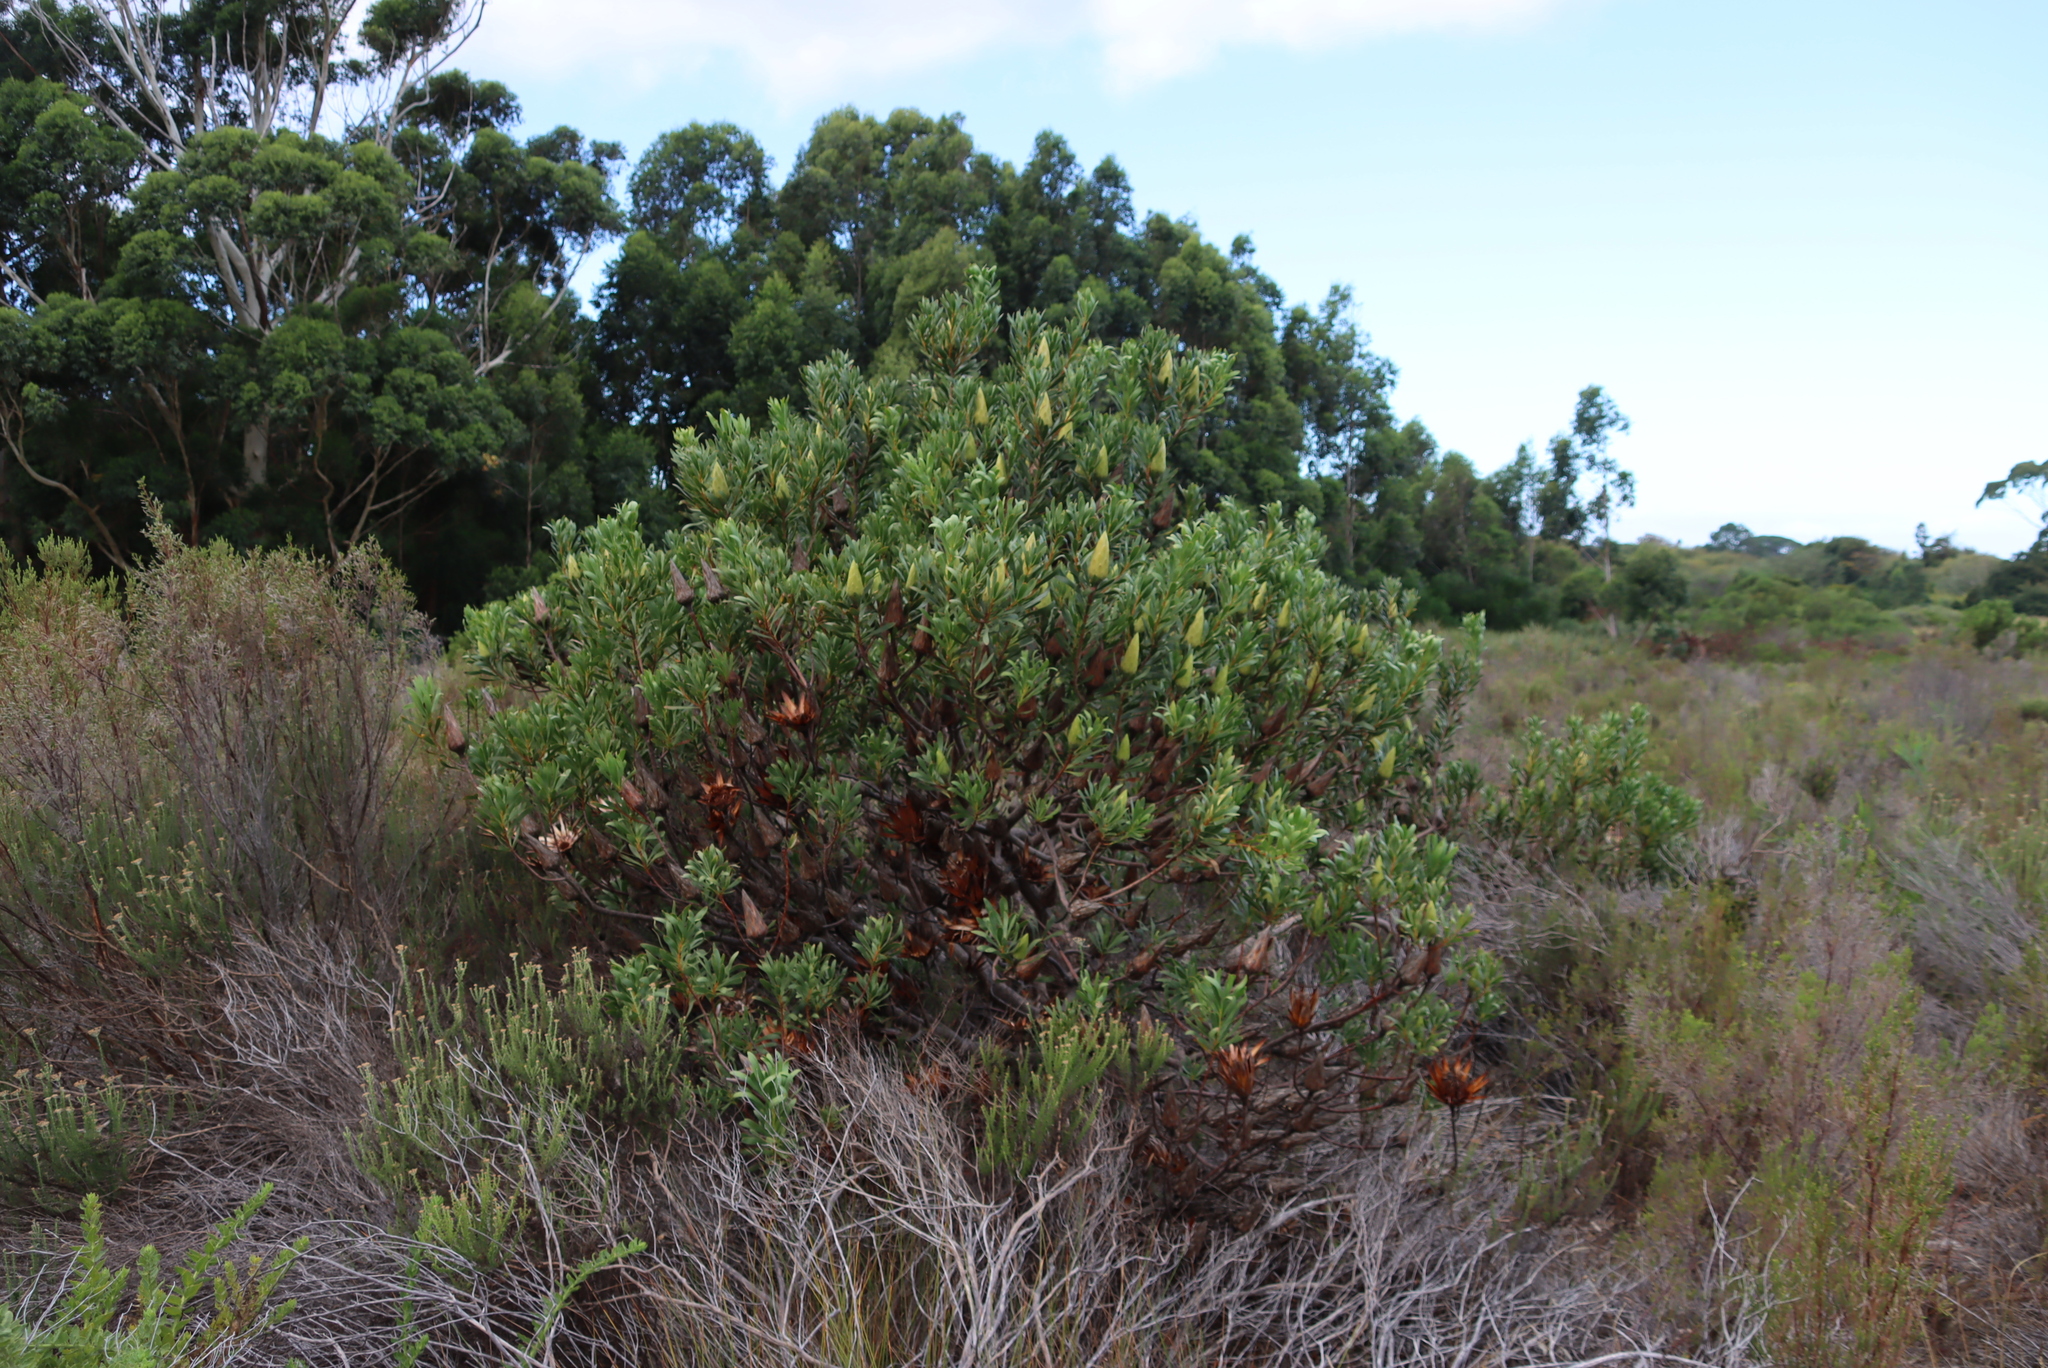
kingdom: Plantae
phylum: Tracheophyta
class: Magnoliopsida
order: Proteales
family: Proteaceae
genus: Protea
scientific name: Protea repens
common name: Sugarbush
